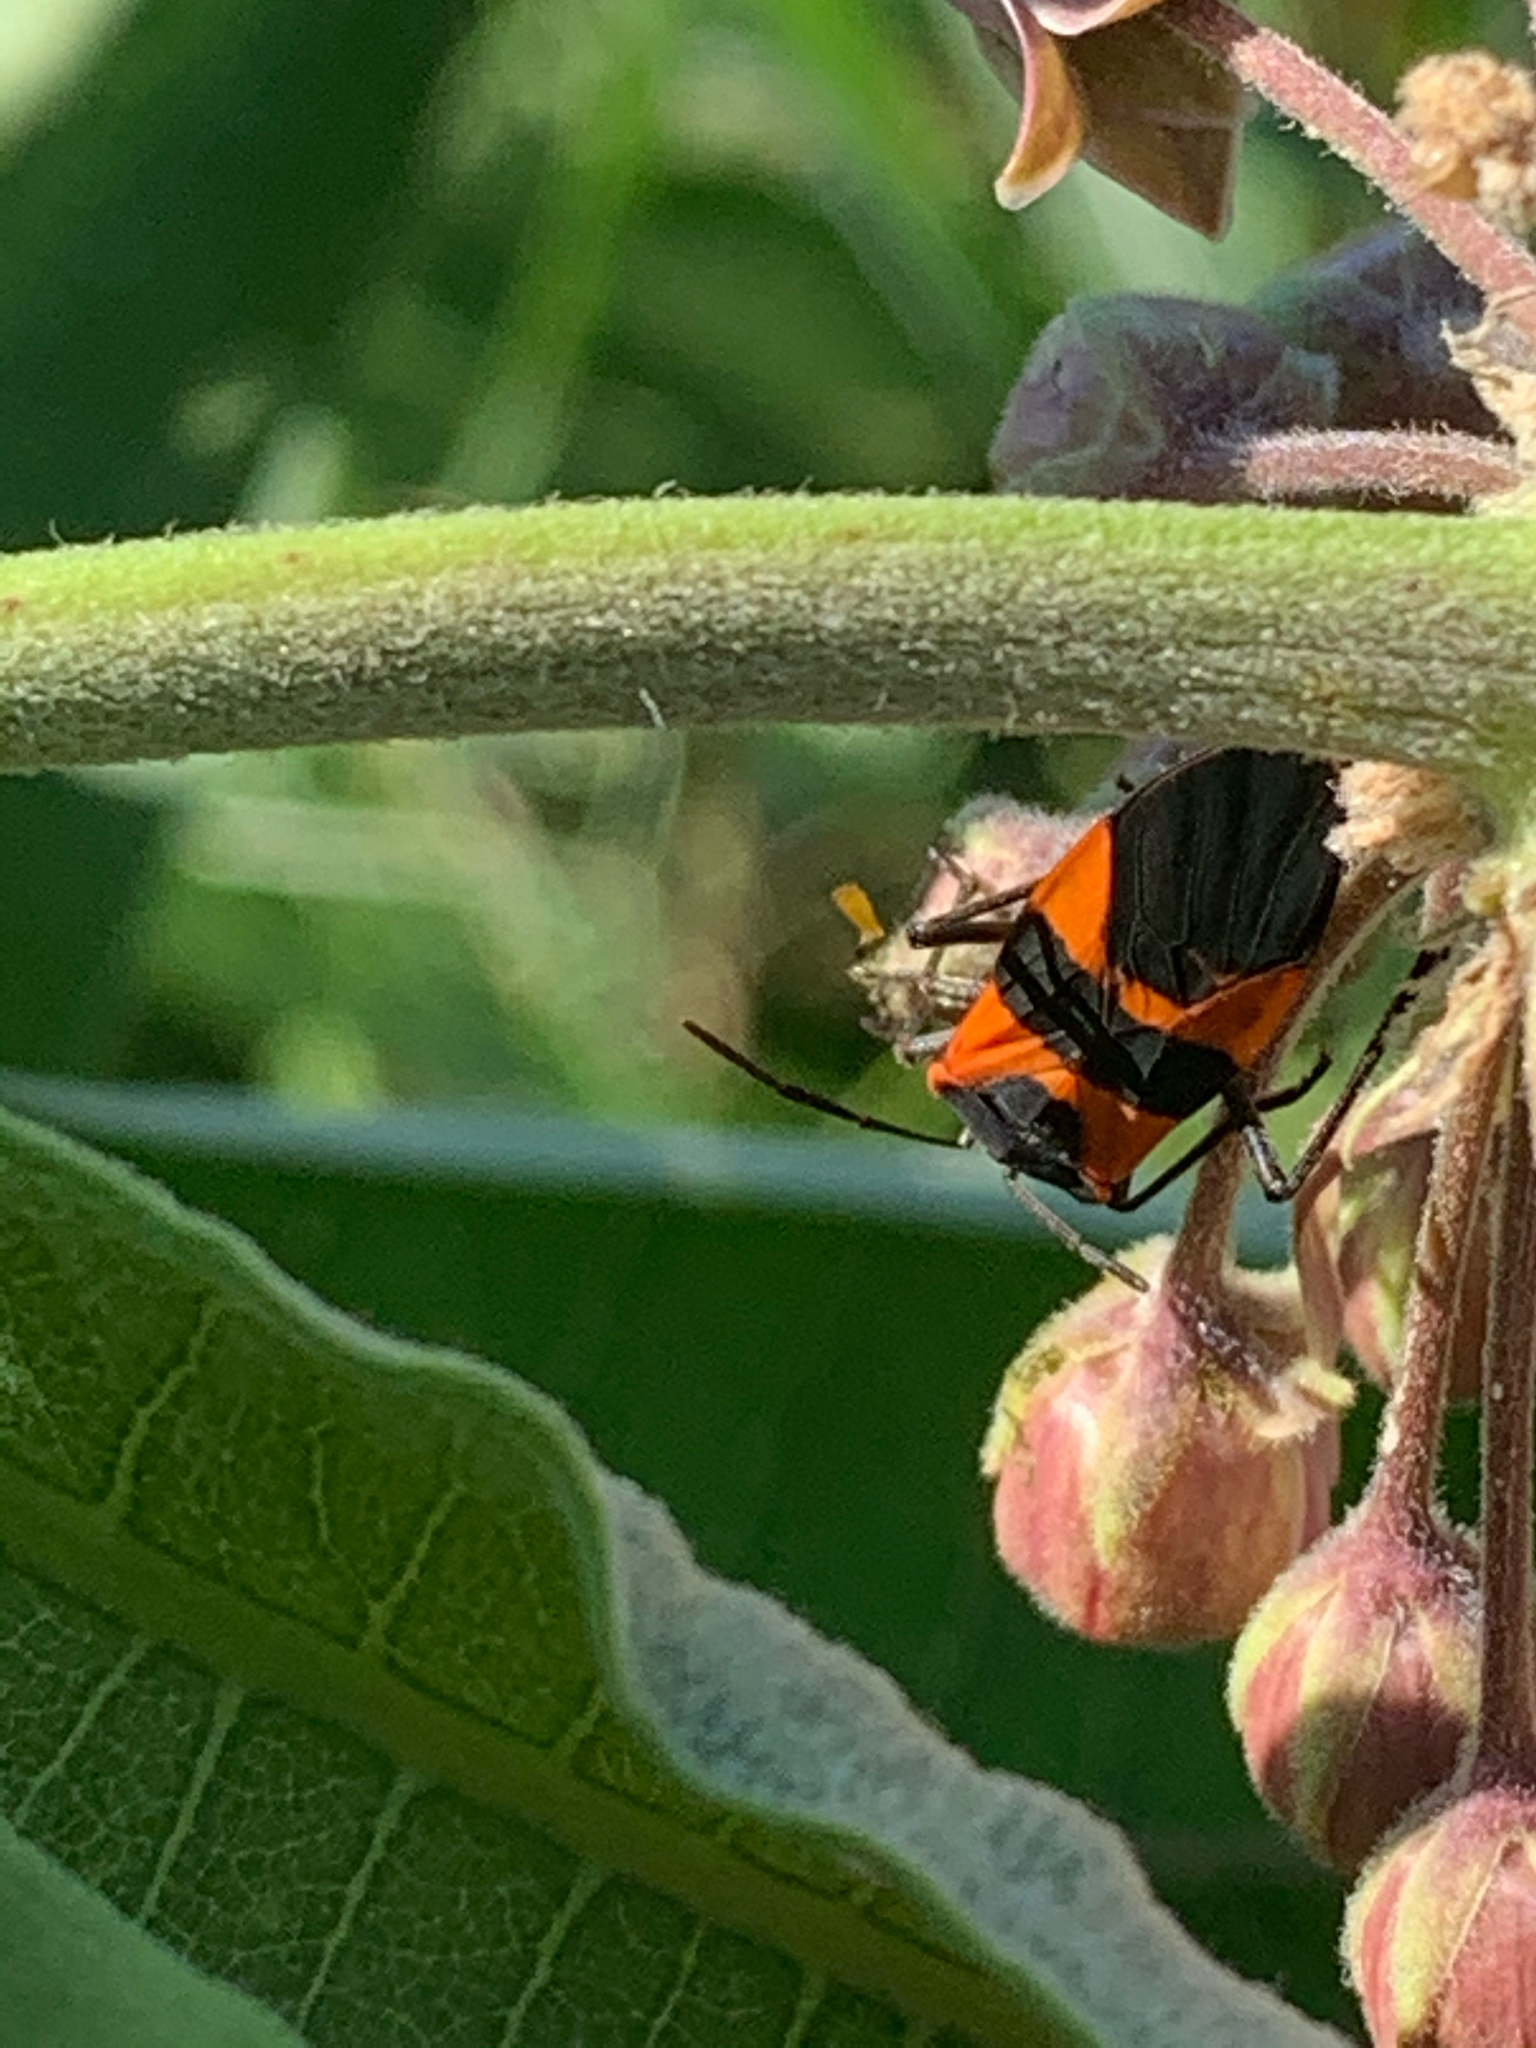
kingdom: Animalia
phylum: Arthropoda
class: Insecta
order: Hemiptera
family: Lygaeidae
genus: Oncopeltus
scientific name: Oncopeltus fasciatus
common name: Large milkweed bug
